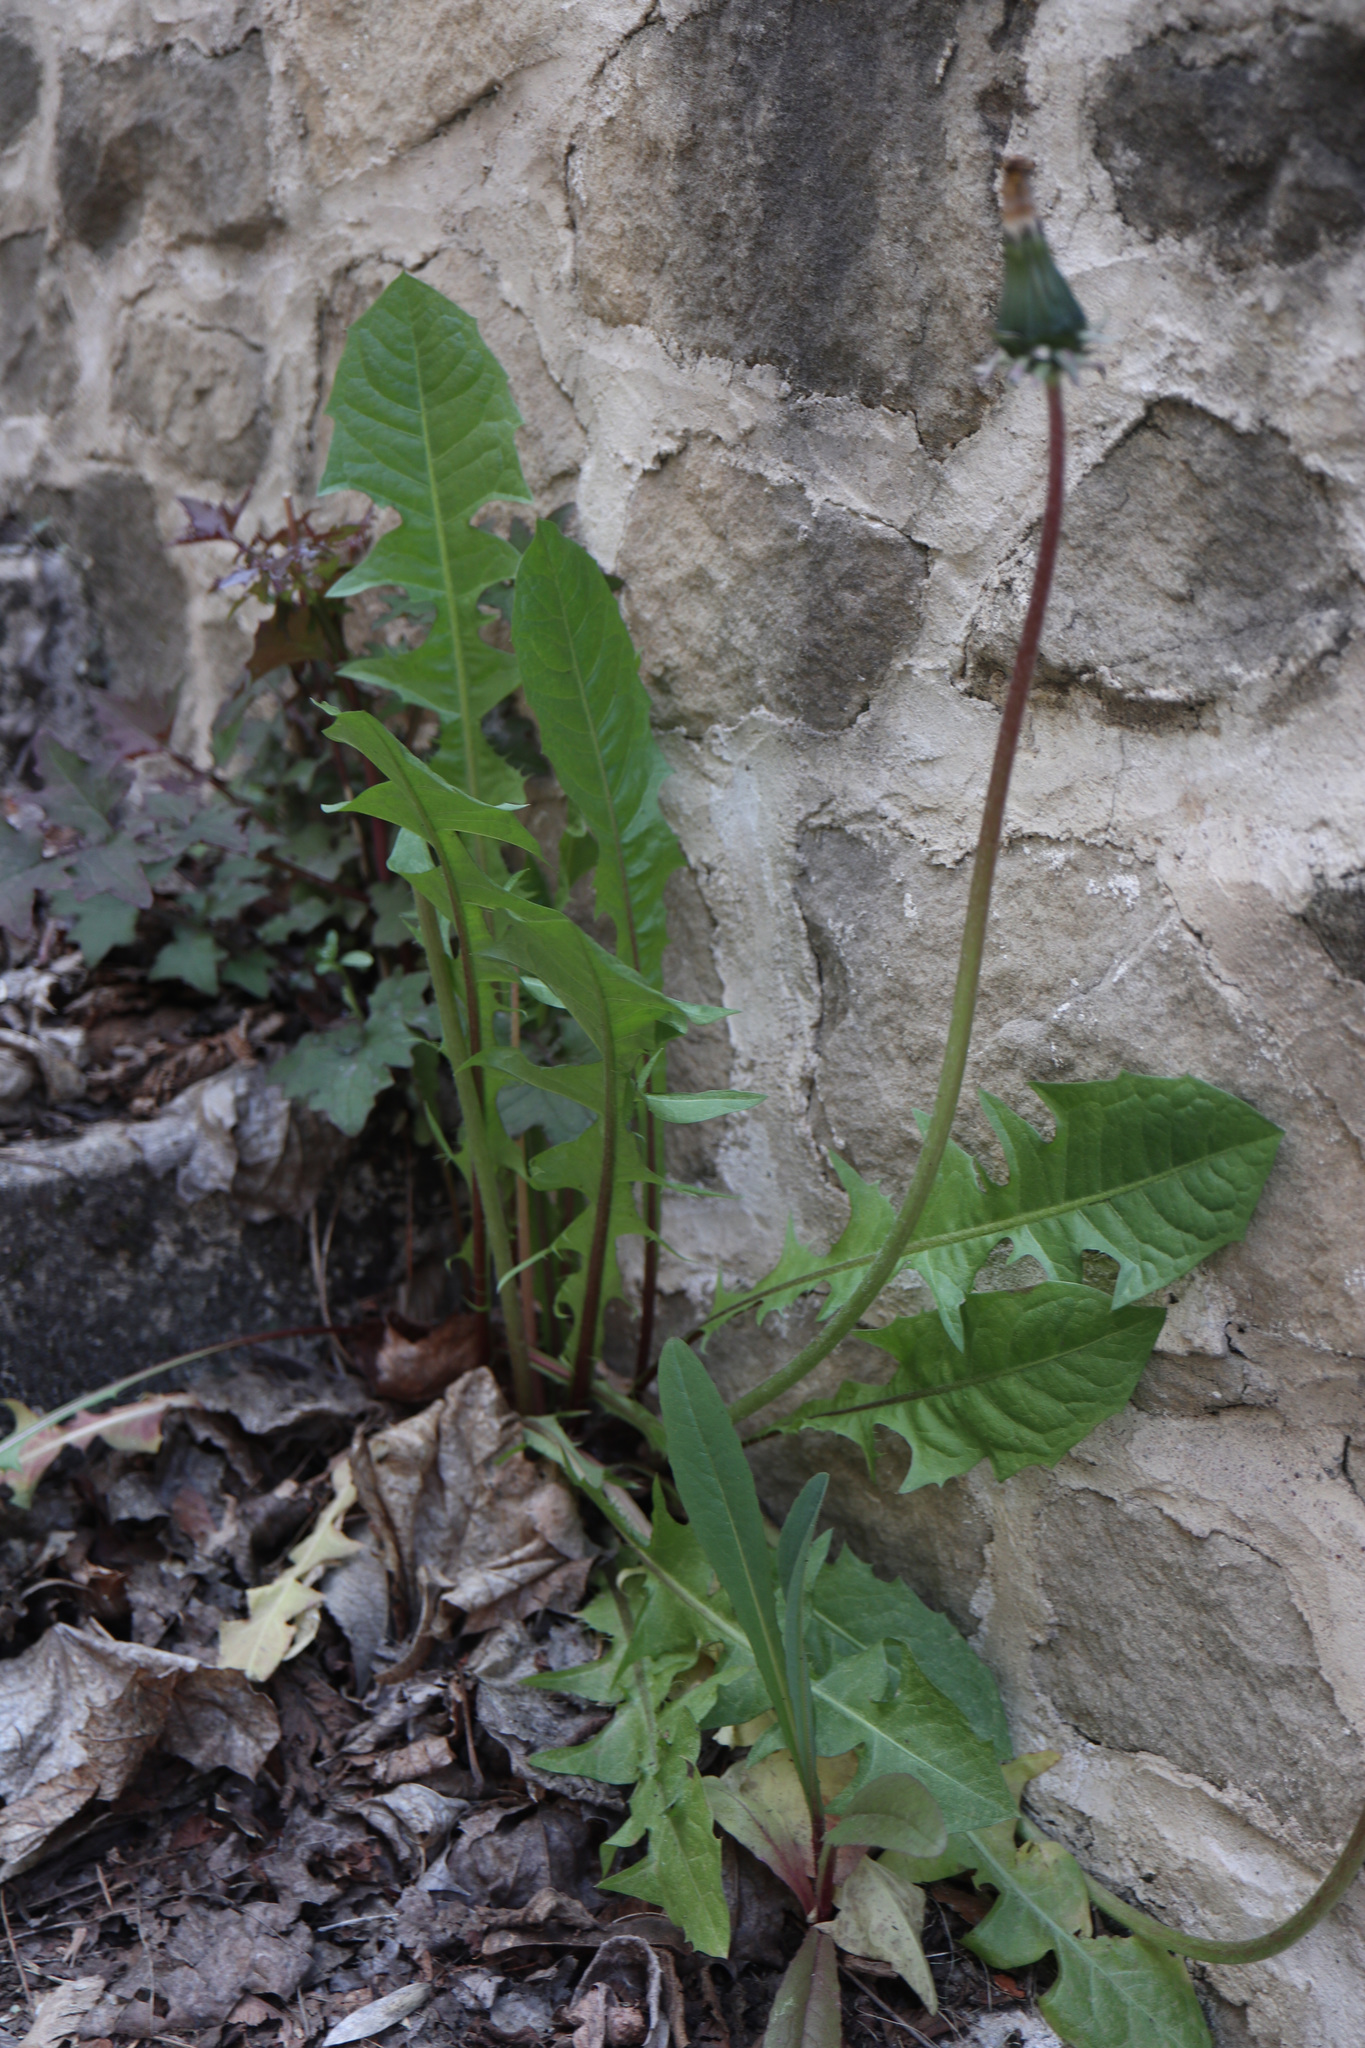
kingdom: Plantae
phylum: Tracheophyta
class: Magnoliopsida
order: Asterales
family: Asteraceae
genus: Taraxacum
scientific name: Taraxacum officinale
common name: Common dandelion
